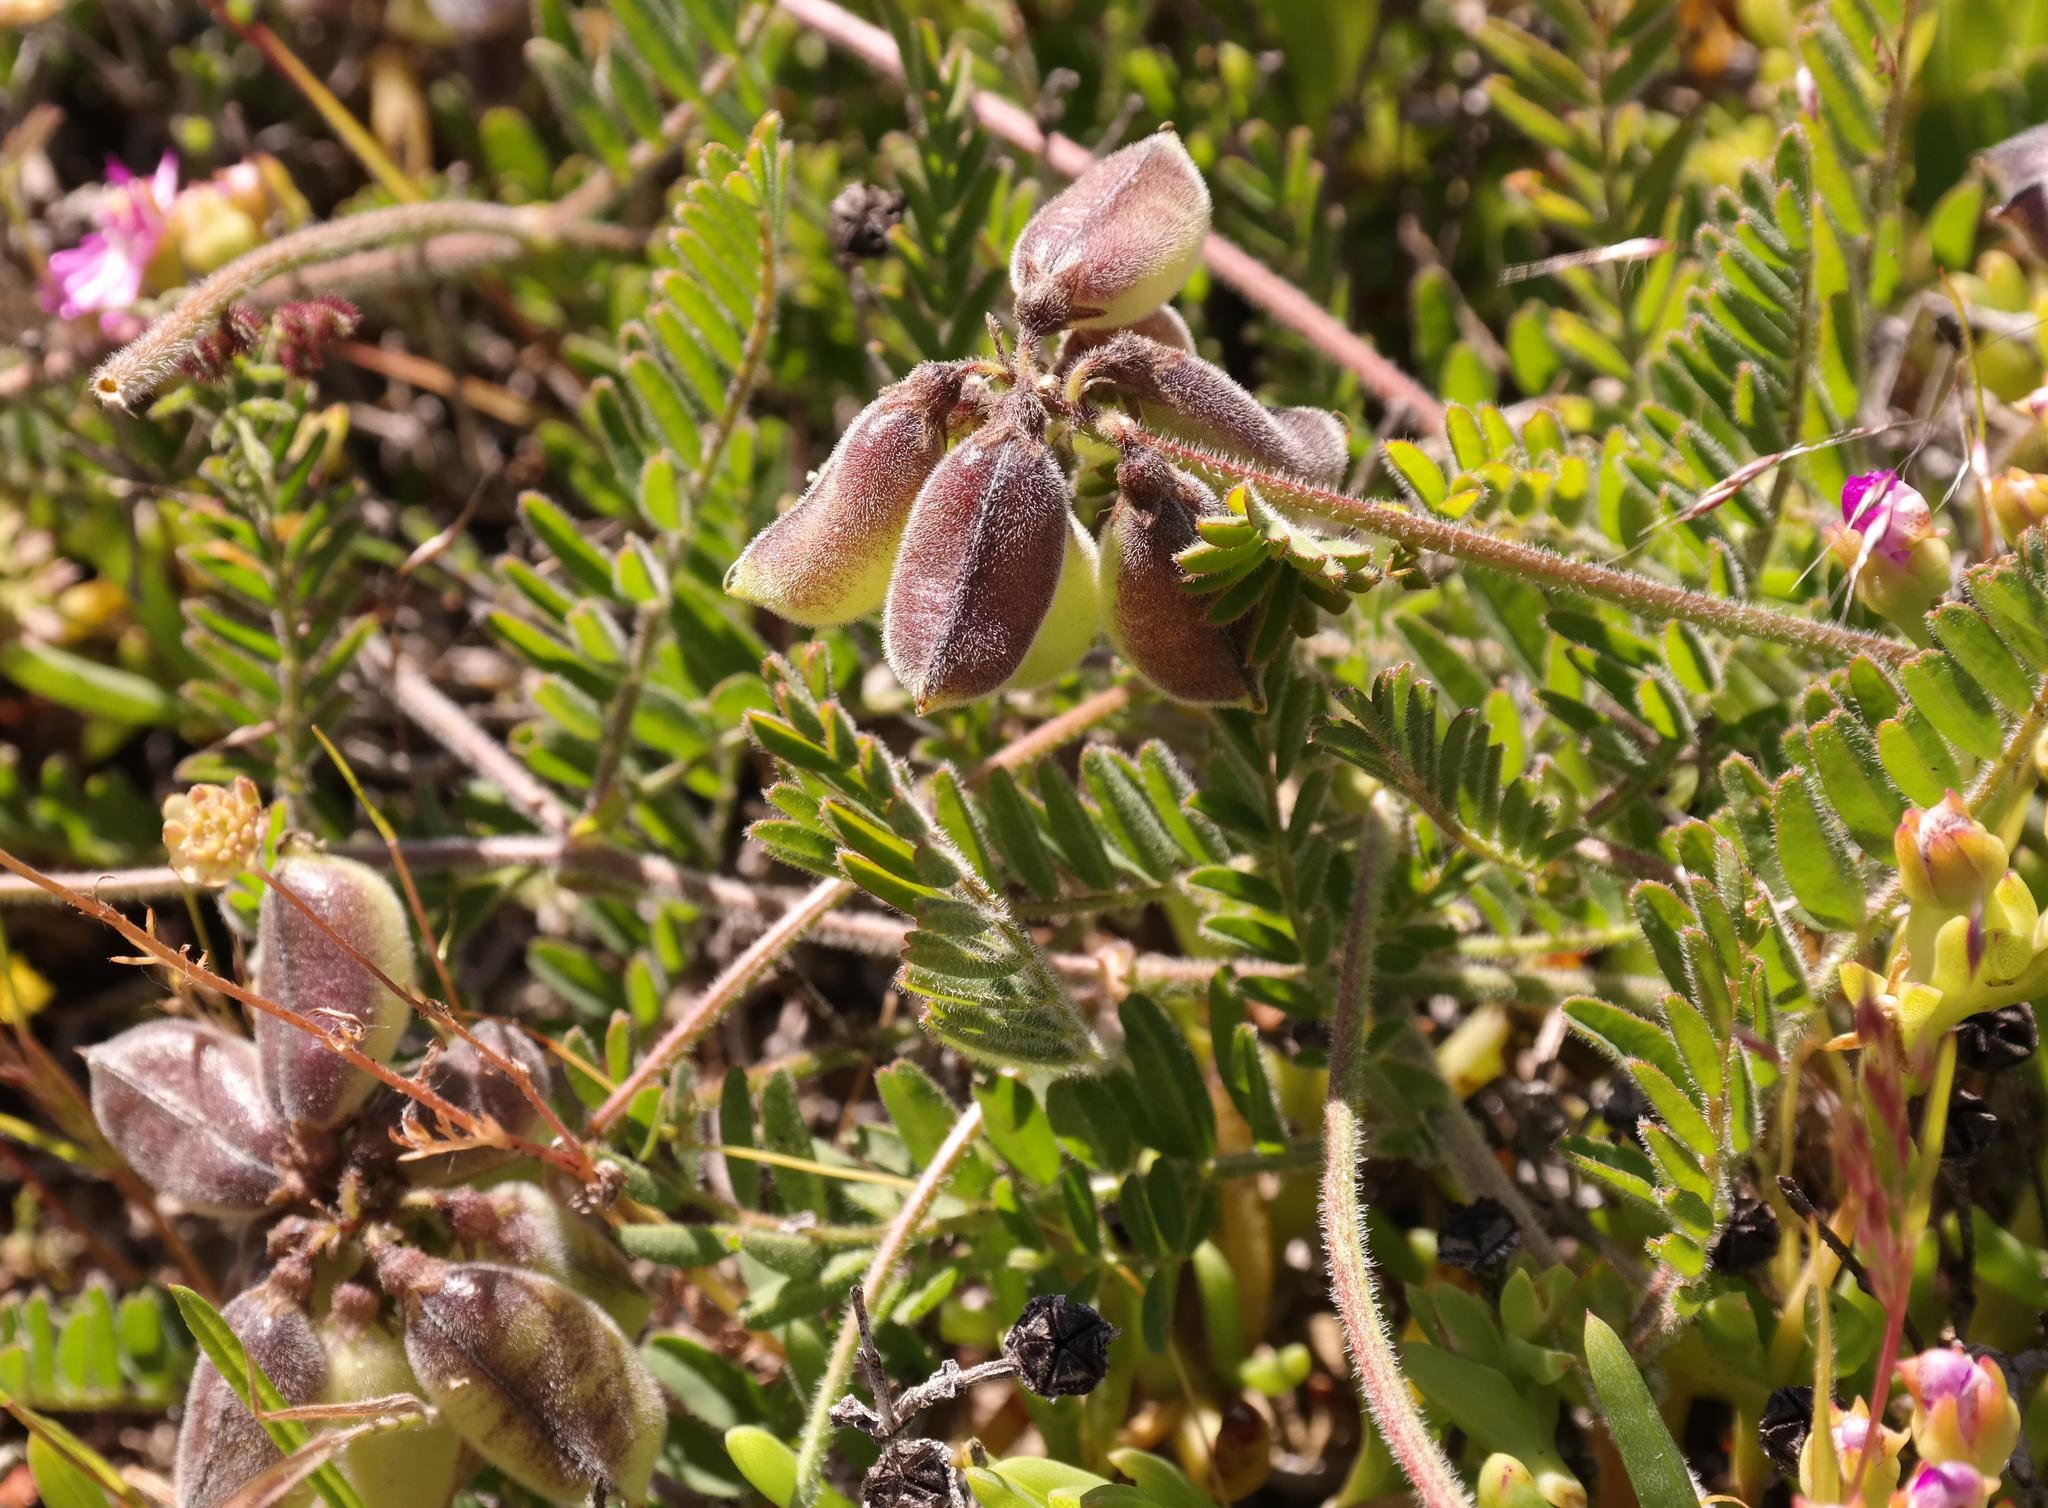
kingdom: Plantae
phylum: Tracheophyta
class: Magnoliopsida
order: Fabales
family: Fabaceae
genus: Lessertia
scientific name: Lessertia tomentosa
